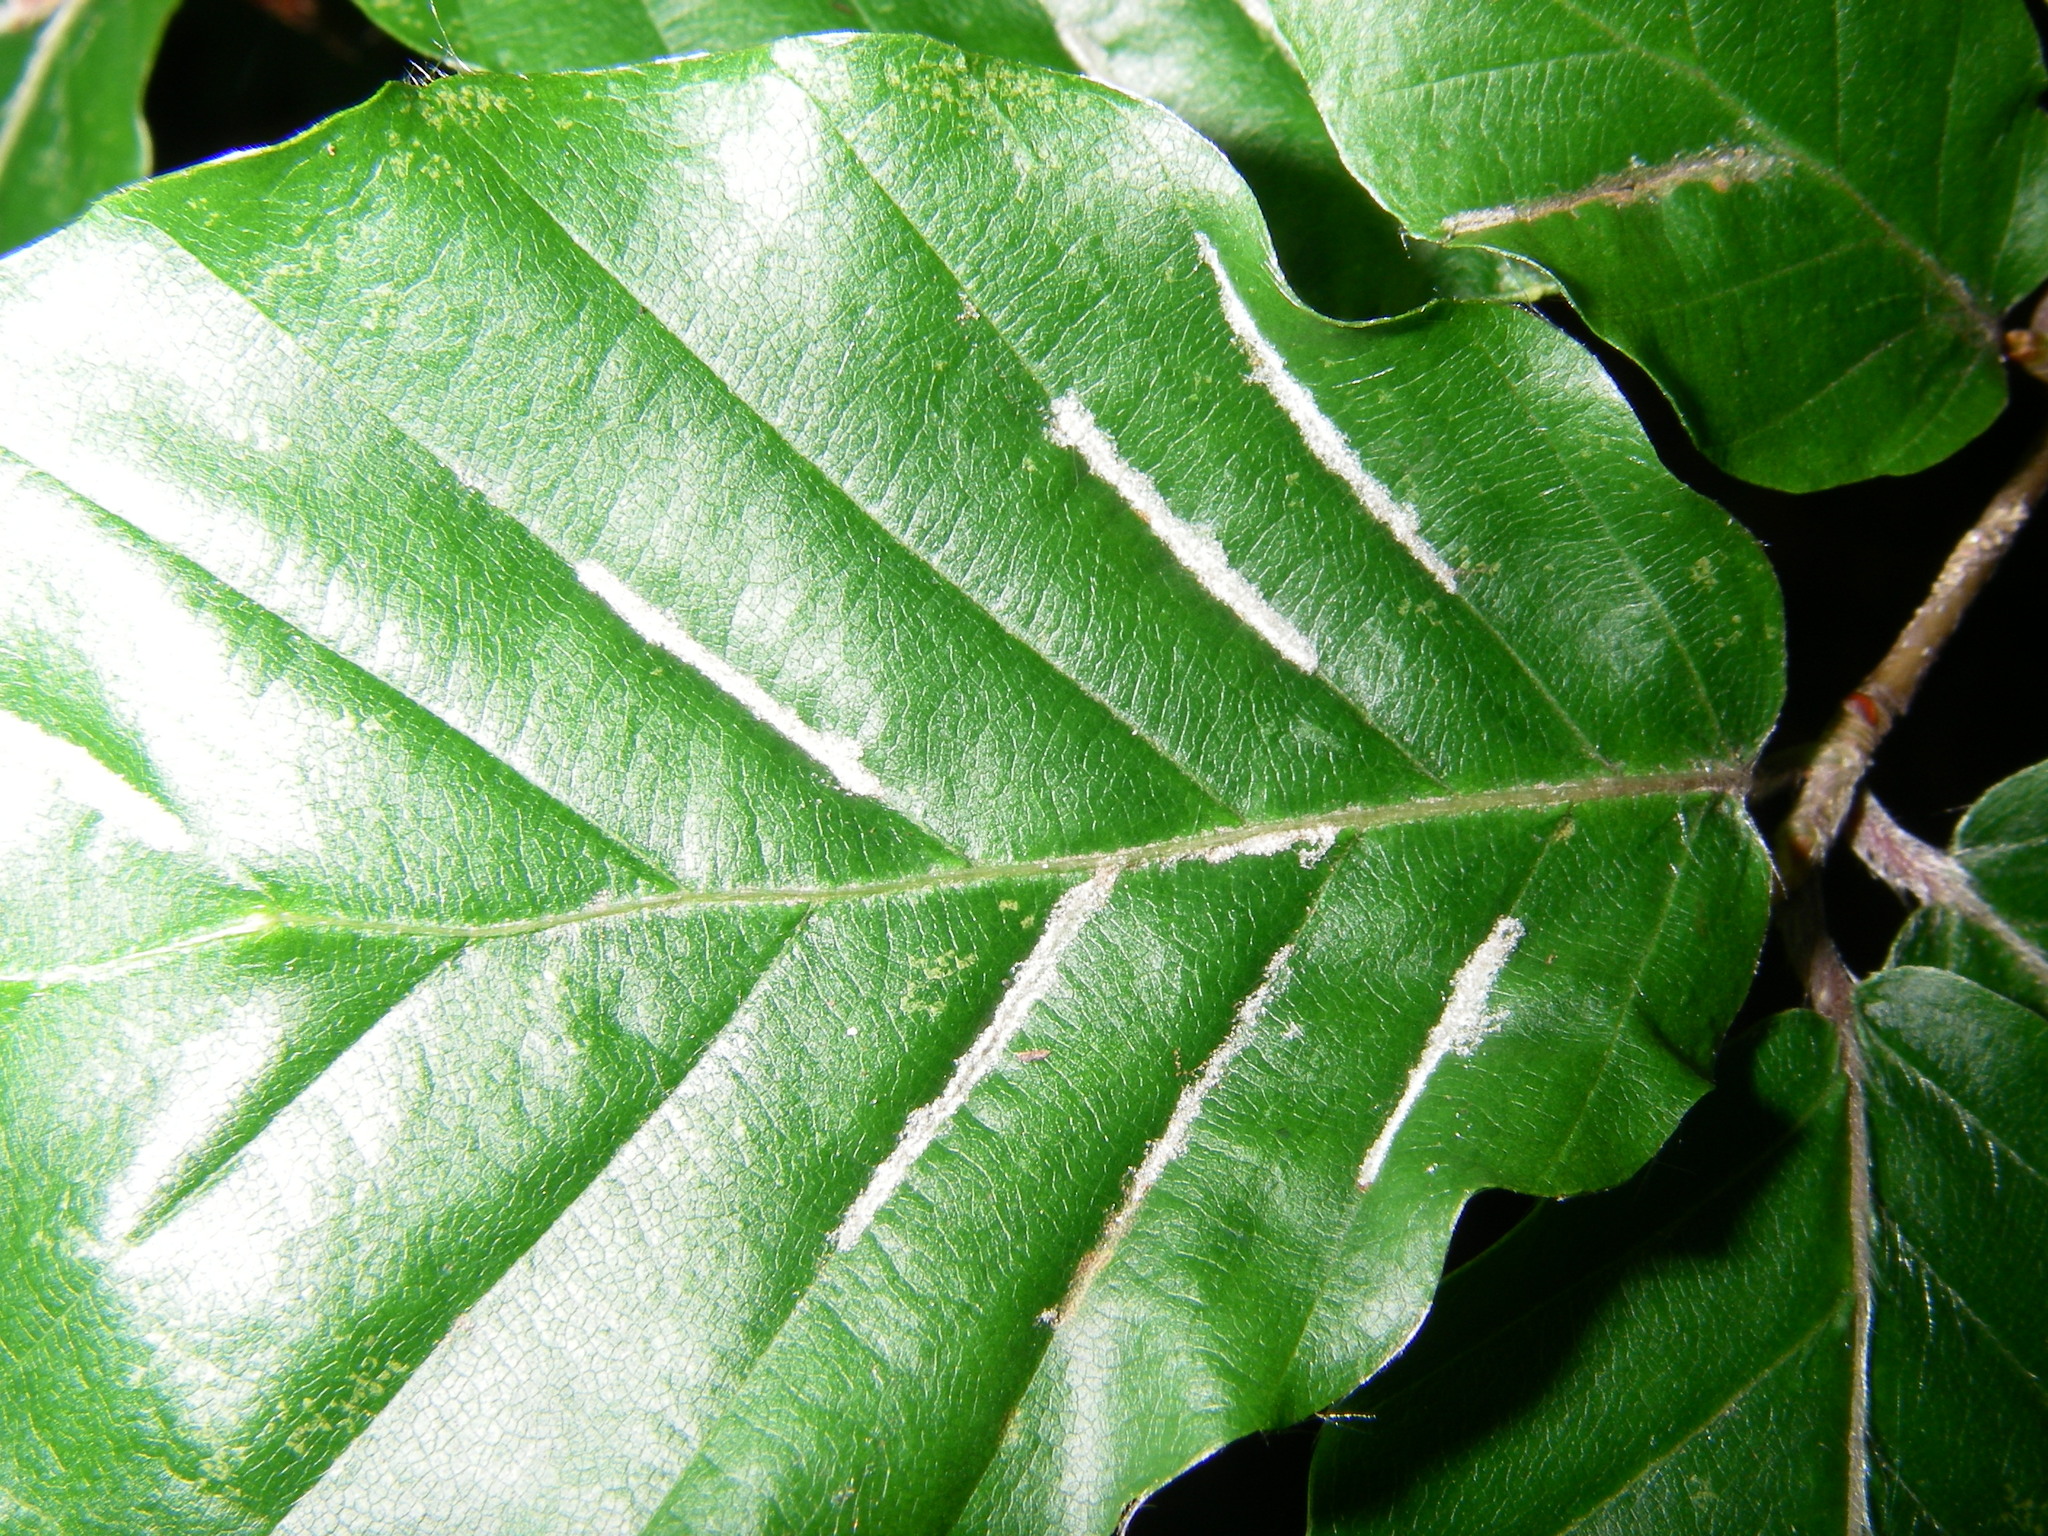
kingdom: Animalia
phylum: Arthropoda
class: Arachnida
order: Trombidiformes
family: Eriophyidae
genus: Aceria
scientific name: Aceria nervisequa
